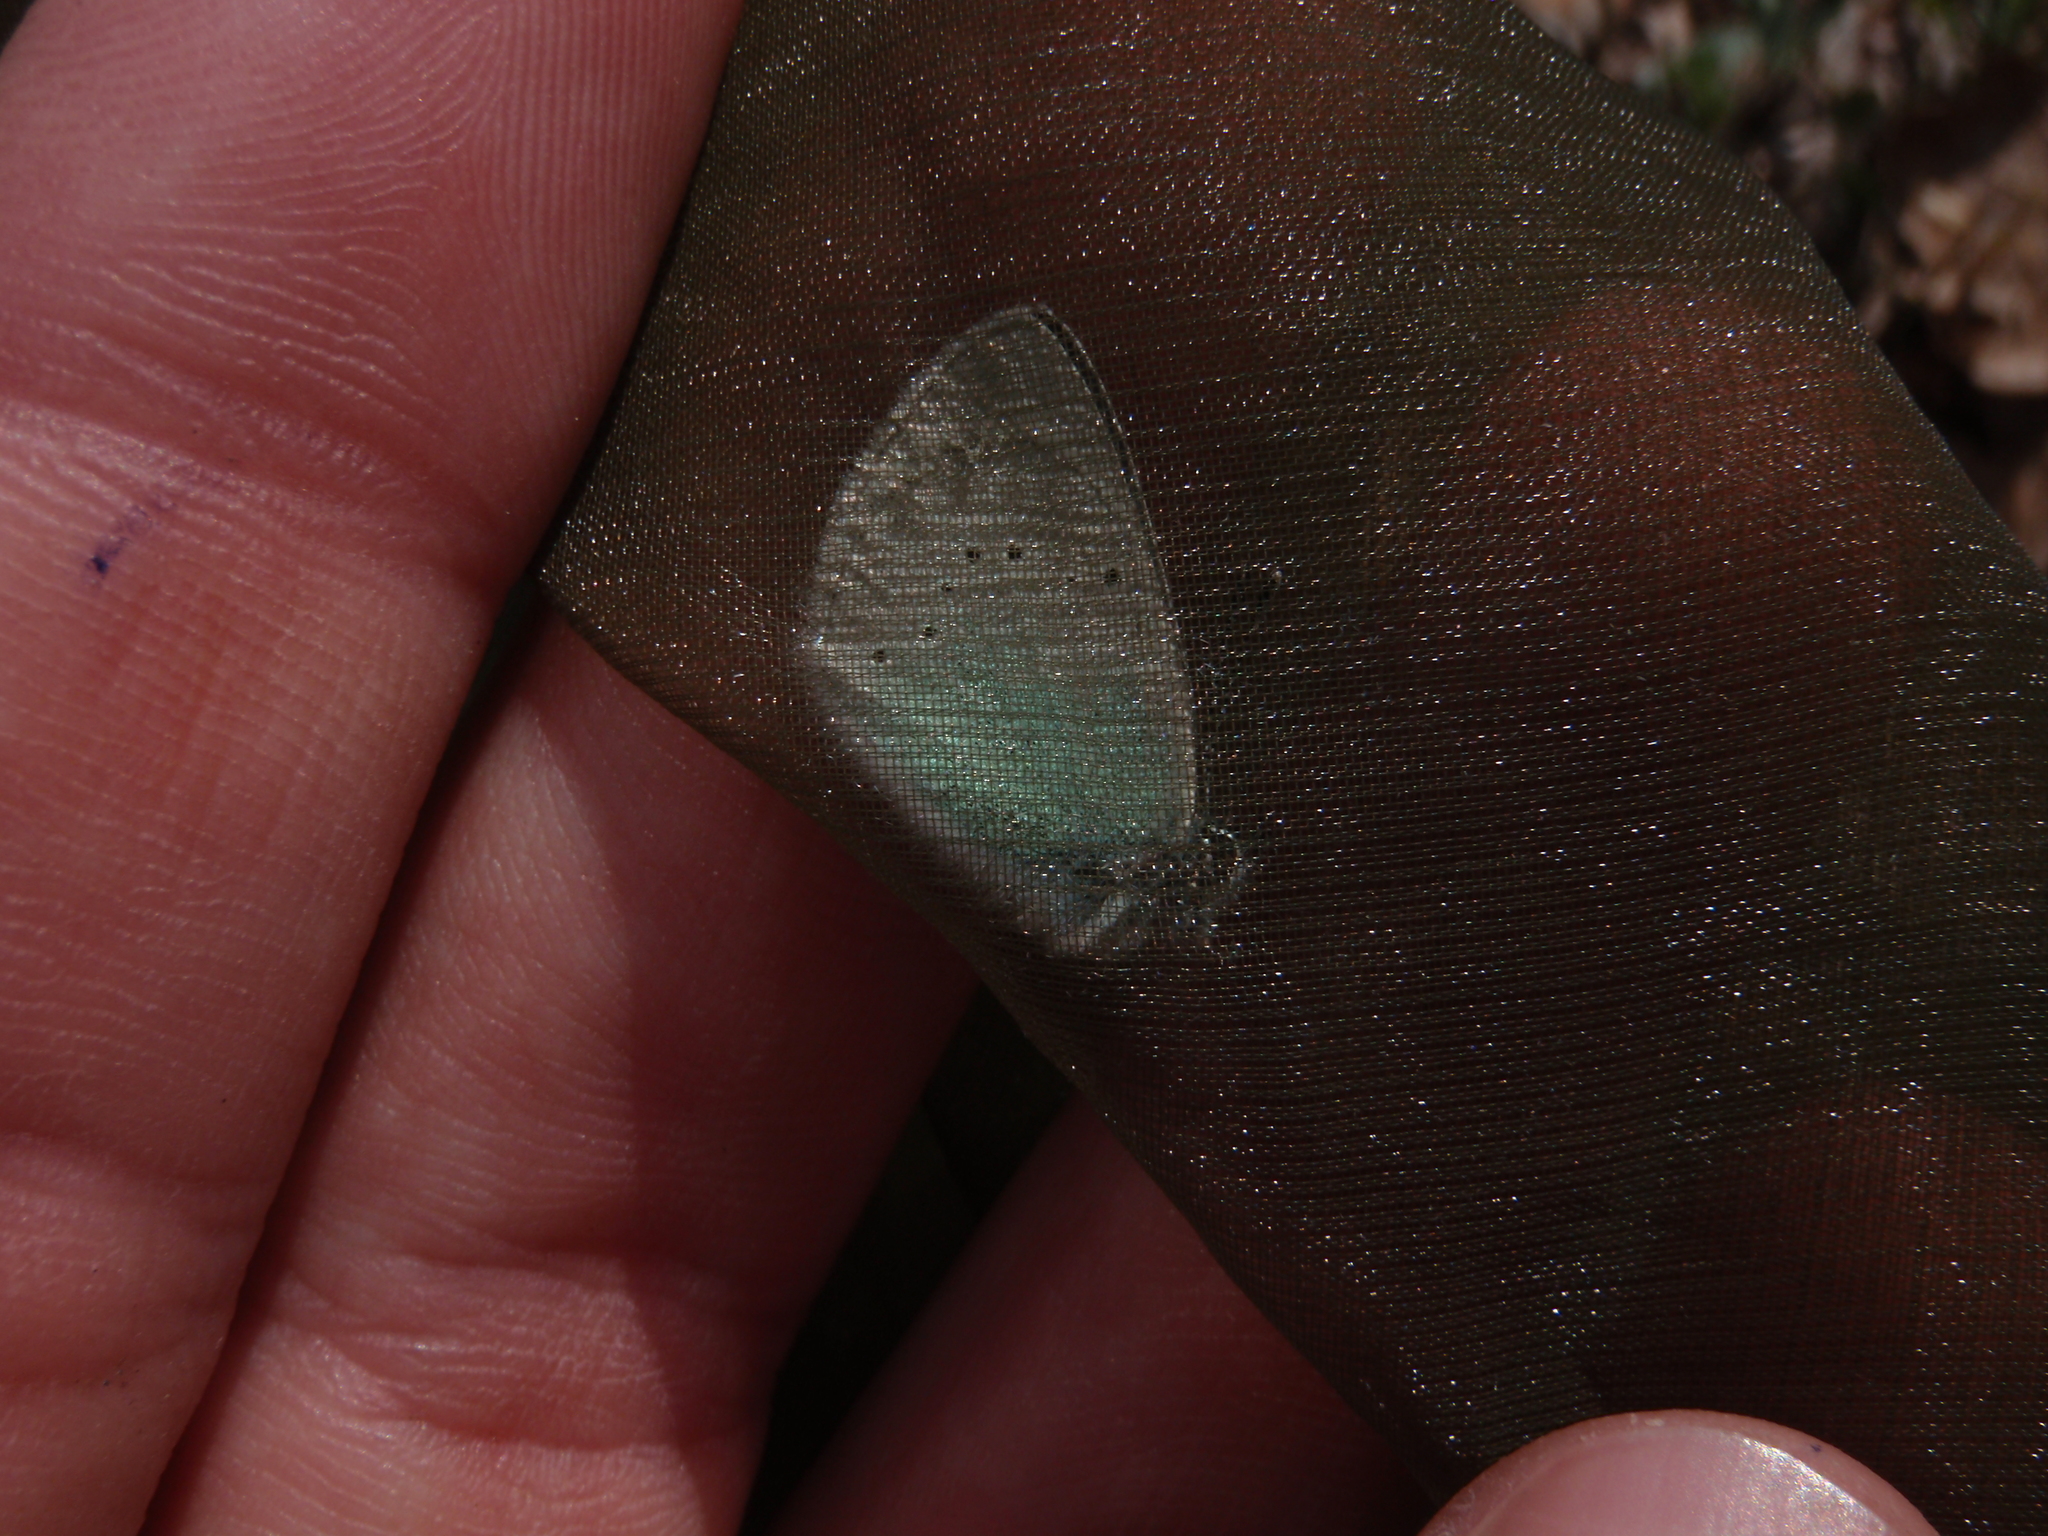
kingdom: Animalia
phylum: Arthropoda
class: Insecta
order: Lepidoptera
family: Lycaenidae
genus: Glaucopsyche
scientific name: Glaucopsyche alexis
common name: Green-underside blue
